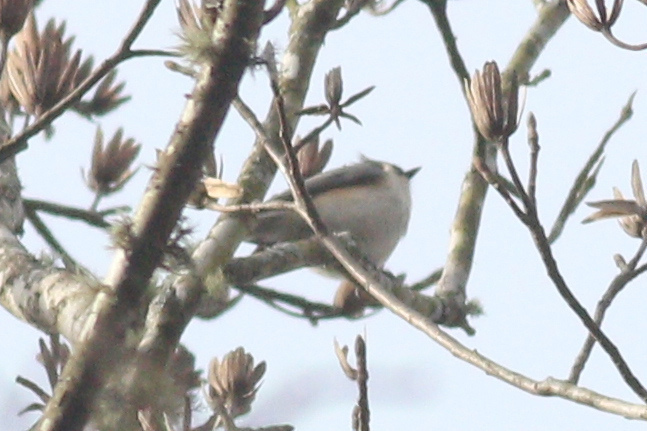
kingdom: Animalia
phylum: Chordata
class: Aves
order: Passeriformes
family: Paridae
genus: Baeolophus
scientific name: Baeolophus bicolor
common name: Tufted titmouse
